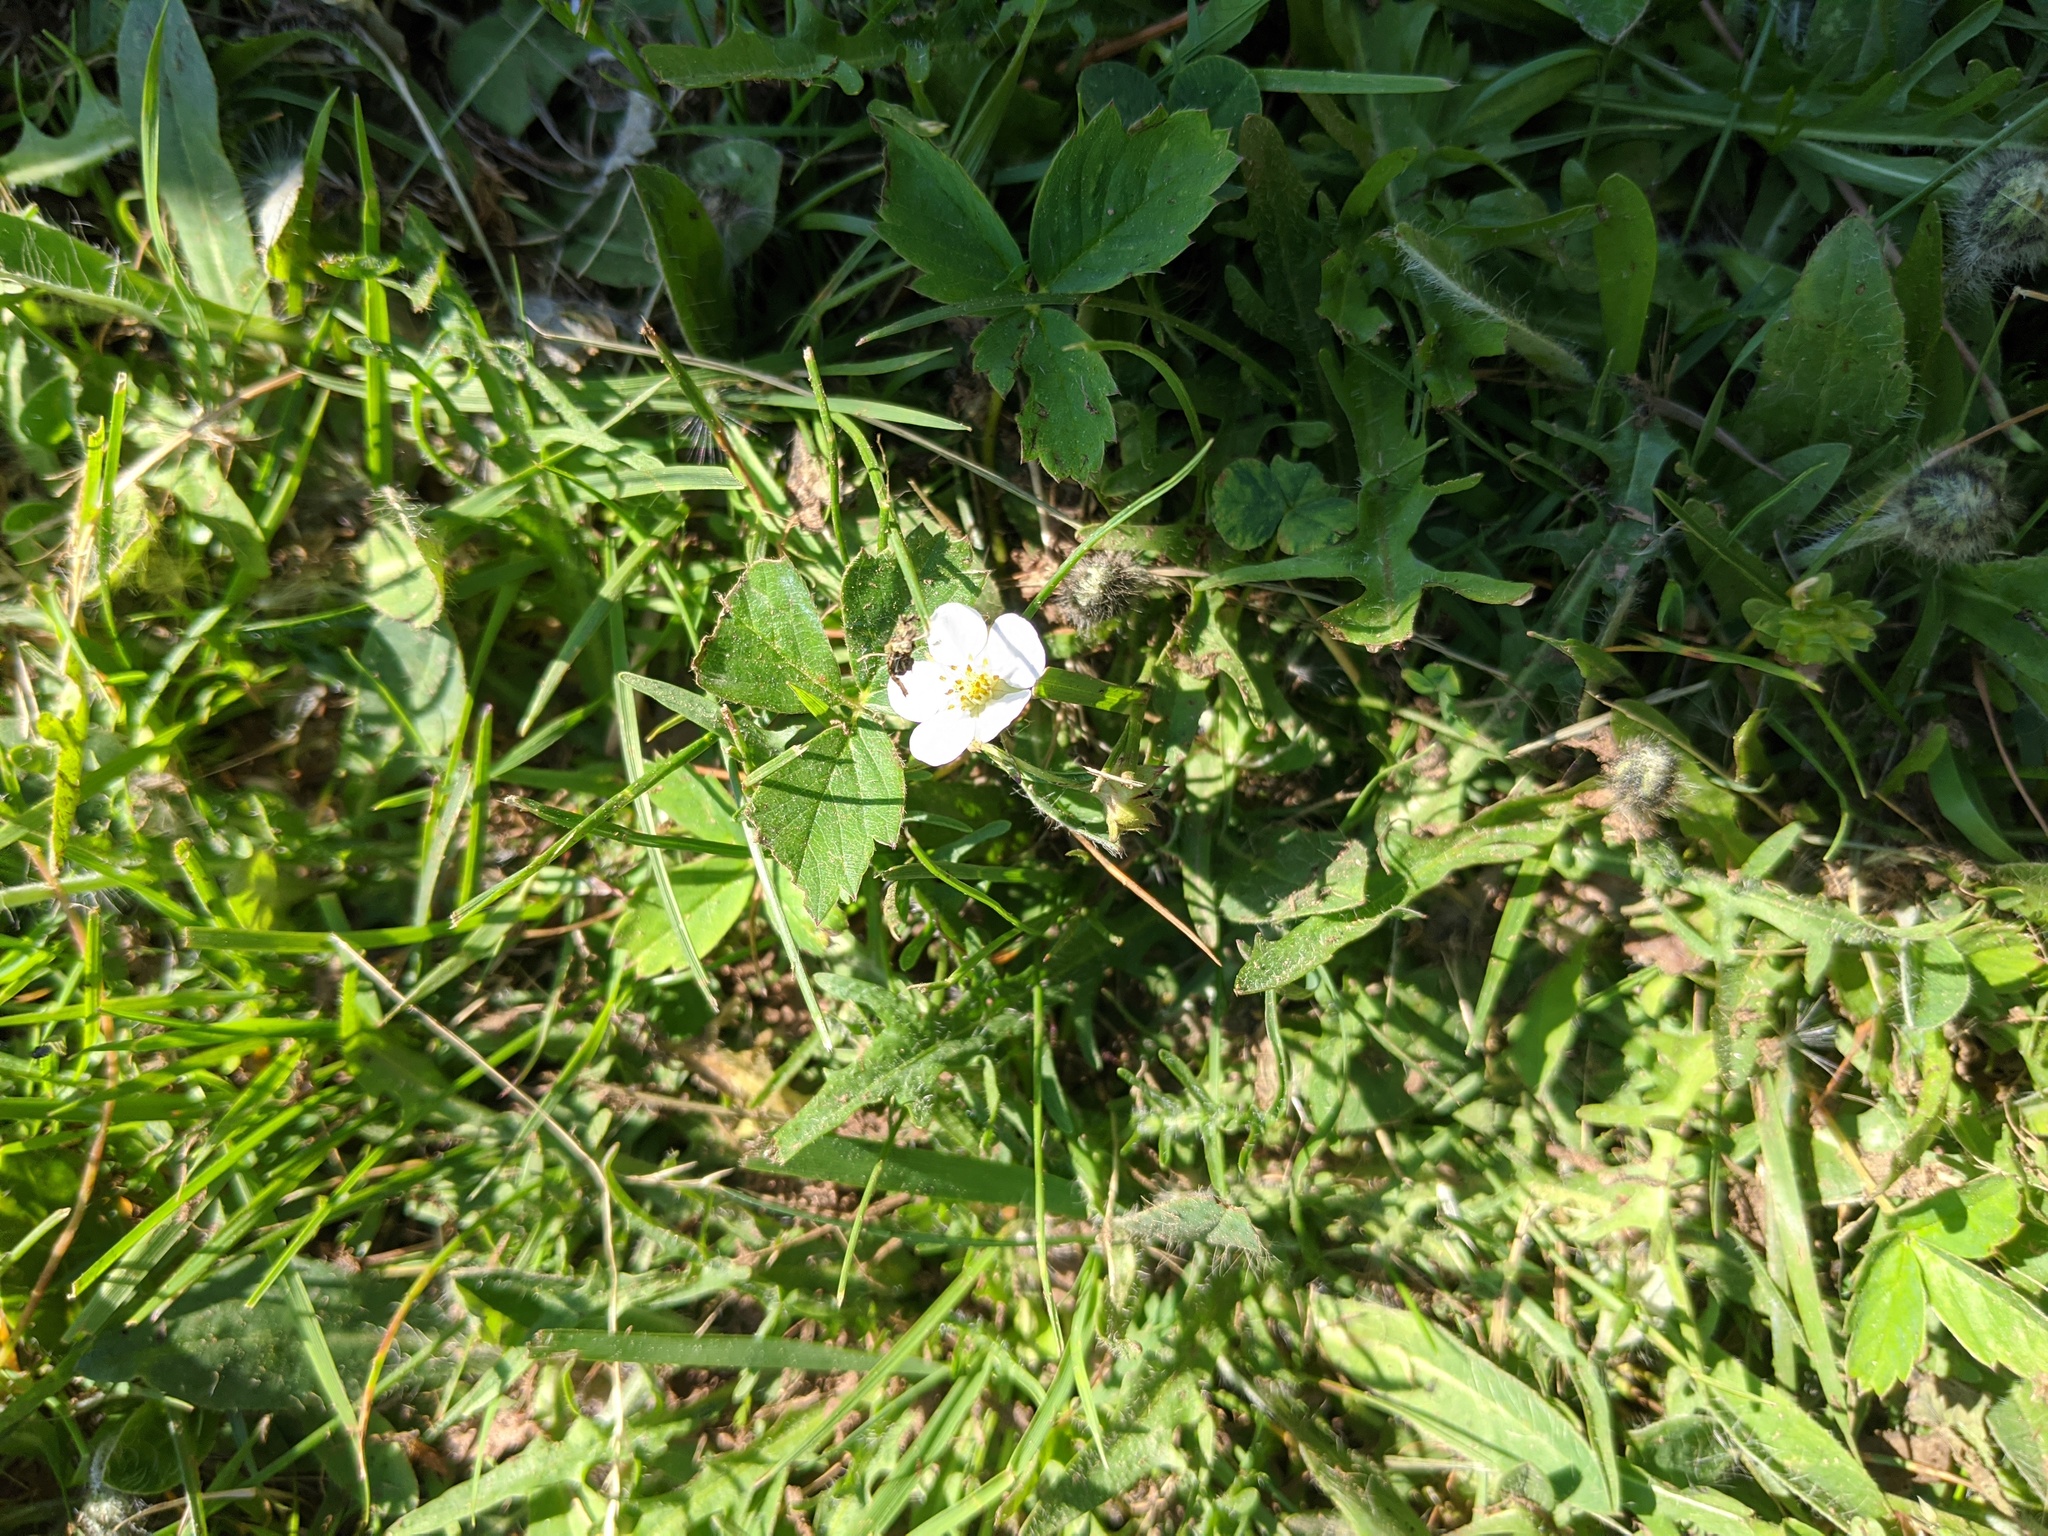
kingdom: Plantae
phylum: Tracheophyta
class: Magnoliopsida
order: Rosales
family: Rosaceae
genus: Fragaria
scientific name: Fragaria virginiana
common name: Thickleaved wild strawberry
